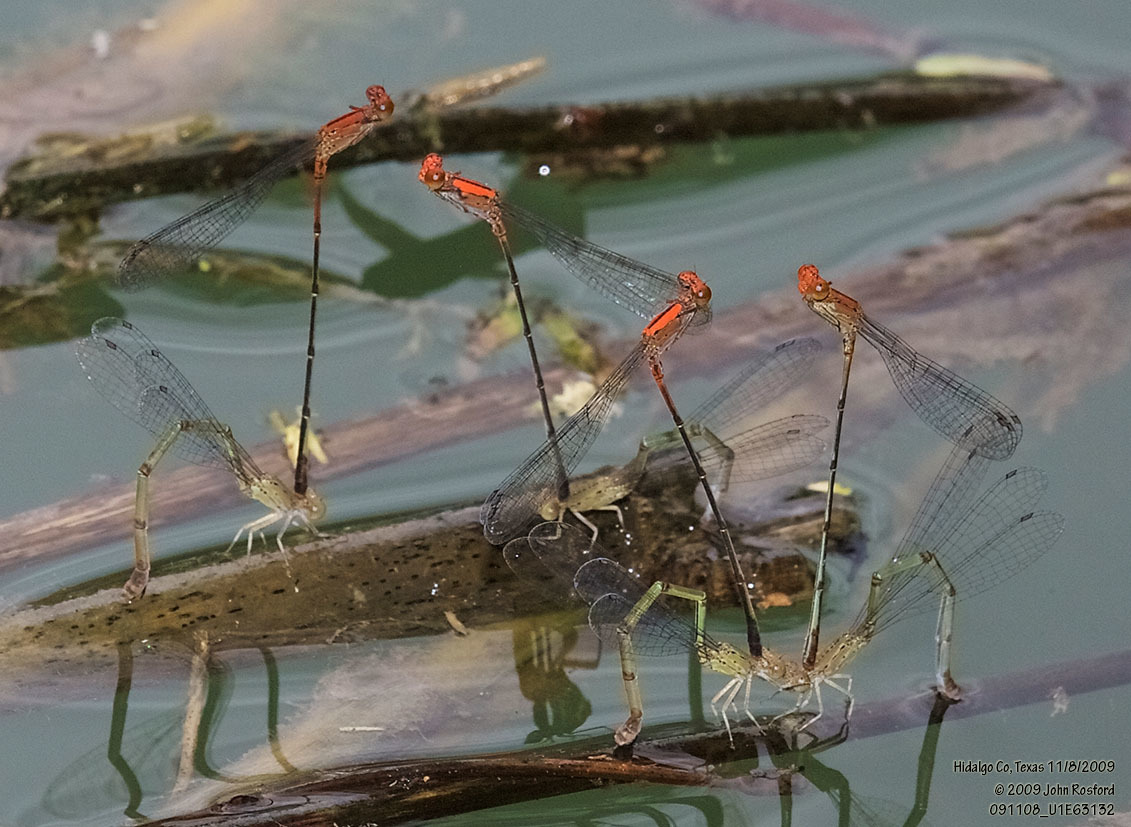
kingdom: Animalia
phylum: Arthropoda
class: Insecta
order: Odonata
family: Coenagrionidae
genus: Neoneura
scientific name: Neoneura amelia
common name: Amelia’s threadtail
